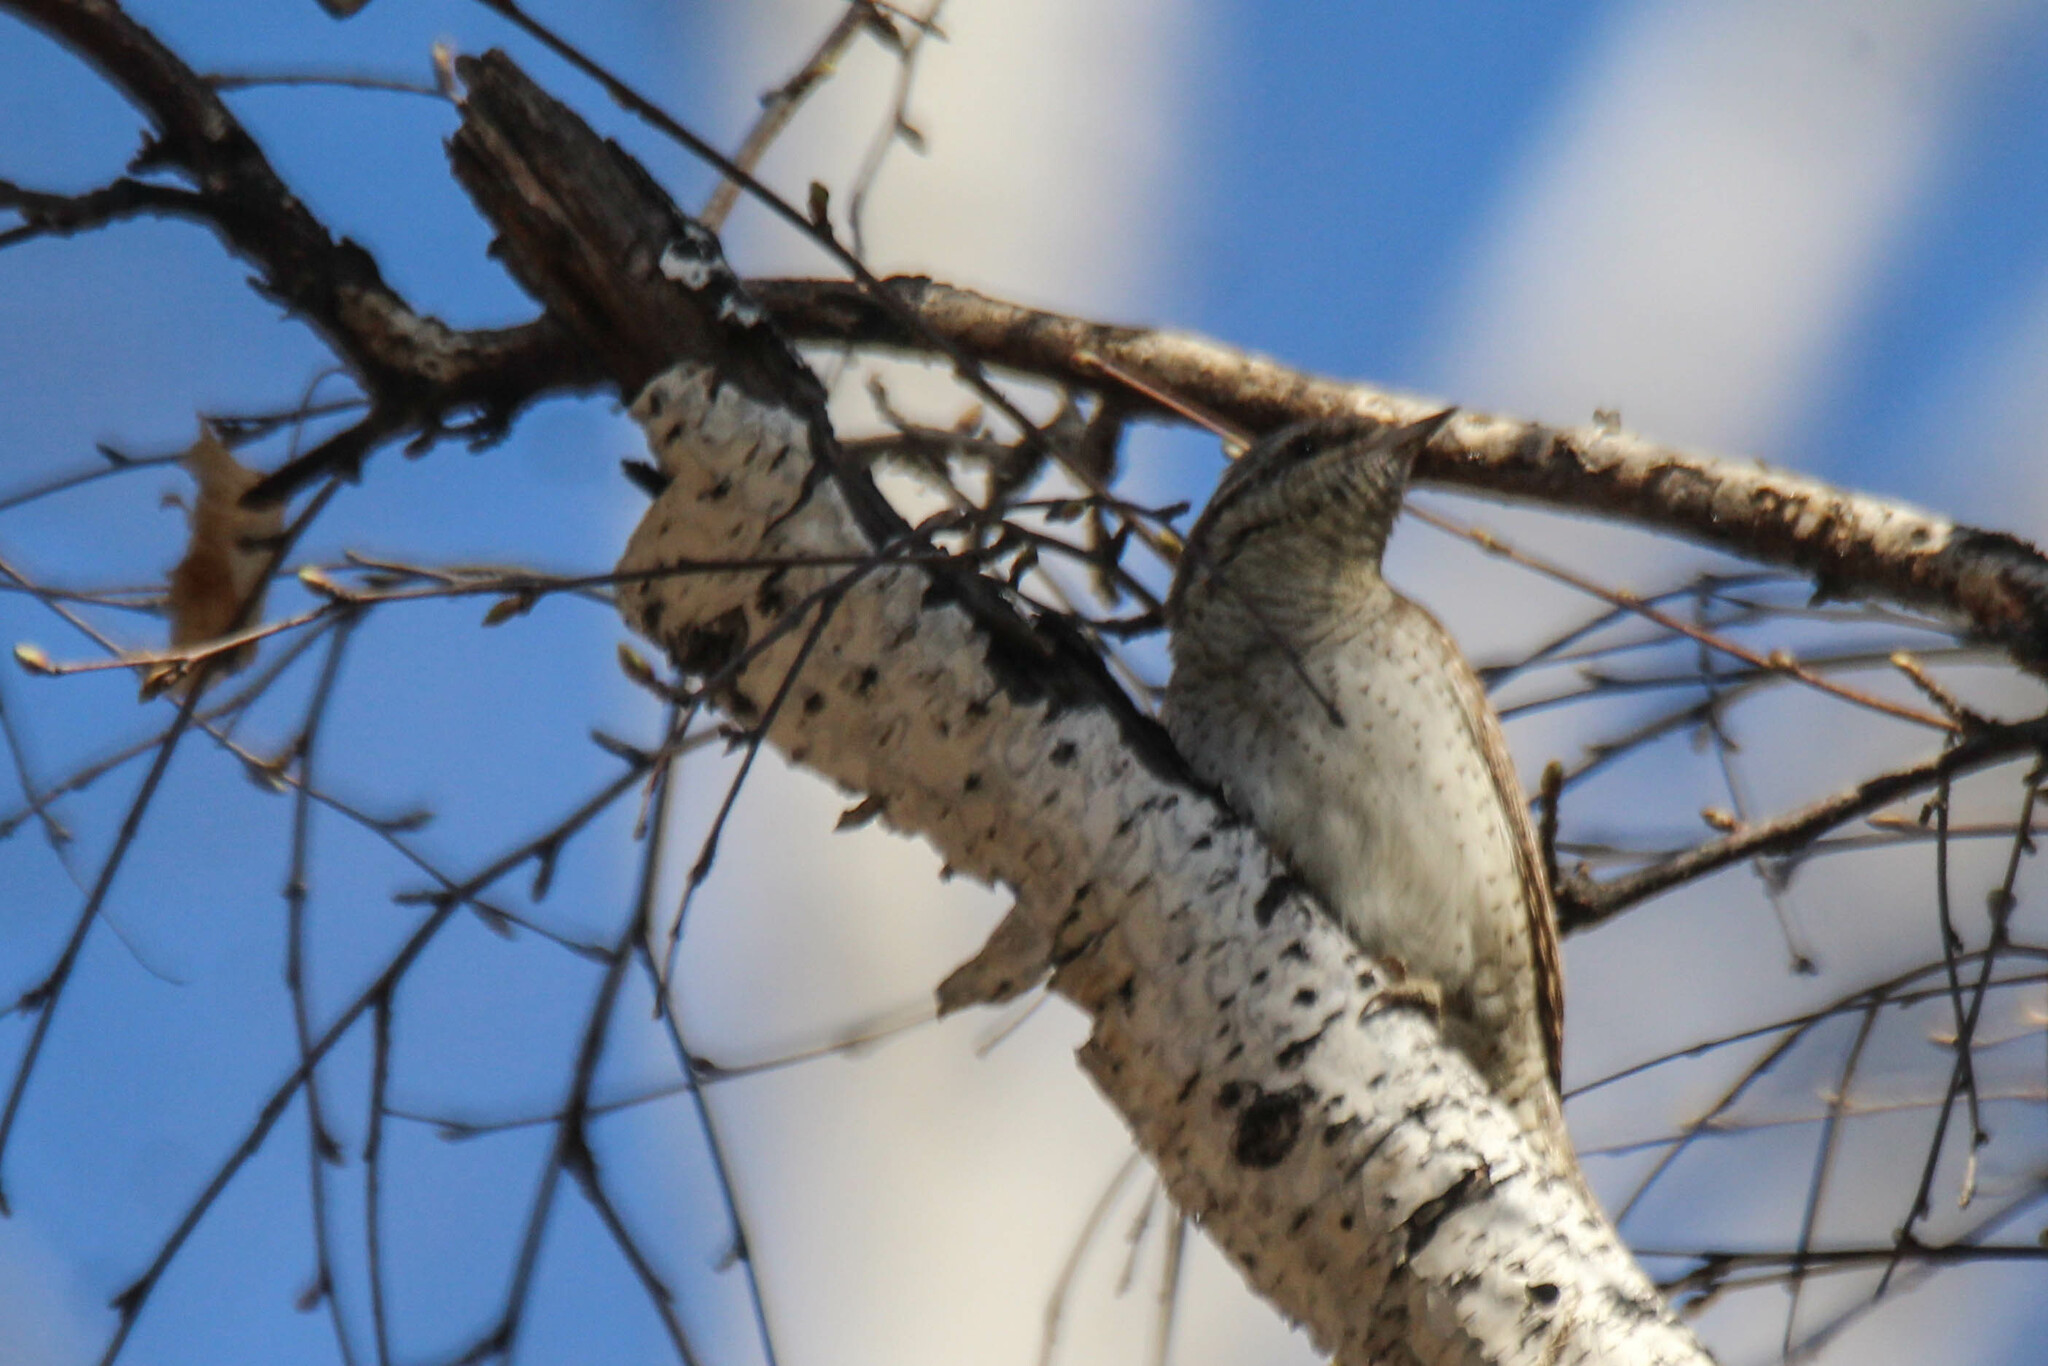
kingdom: Animalia
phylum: Chordata
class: Aves
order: Piciformes
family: Picidae
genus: Jynx
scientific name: Jynx torquilla
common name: Eurasian wryneck
